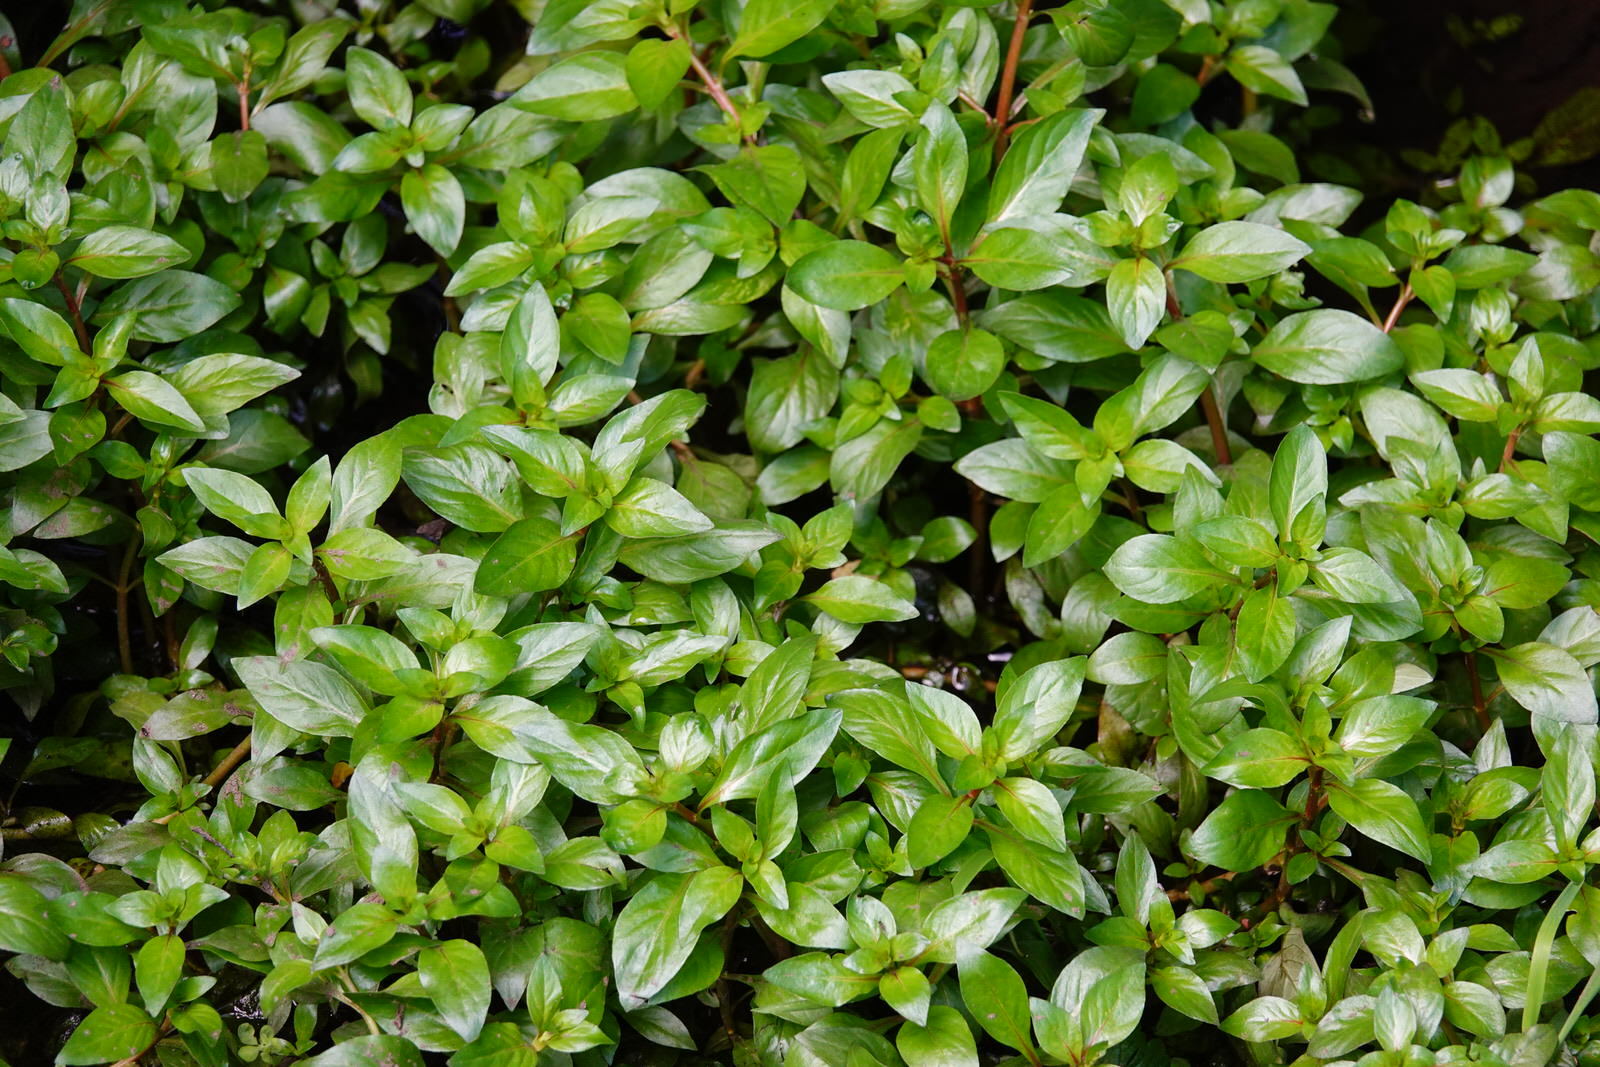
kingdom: Plantae
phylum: Tracheophyta
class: Magnoliopsida
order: Myrtales
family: Onagraceae
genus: Ludwigia
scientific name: Ludwigia palustris
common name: Hampshire-purslane
